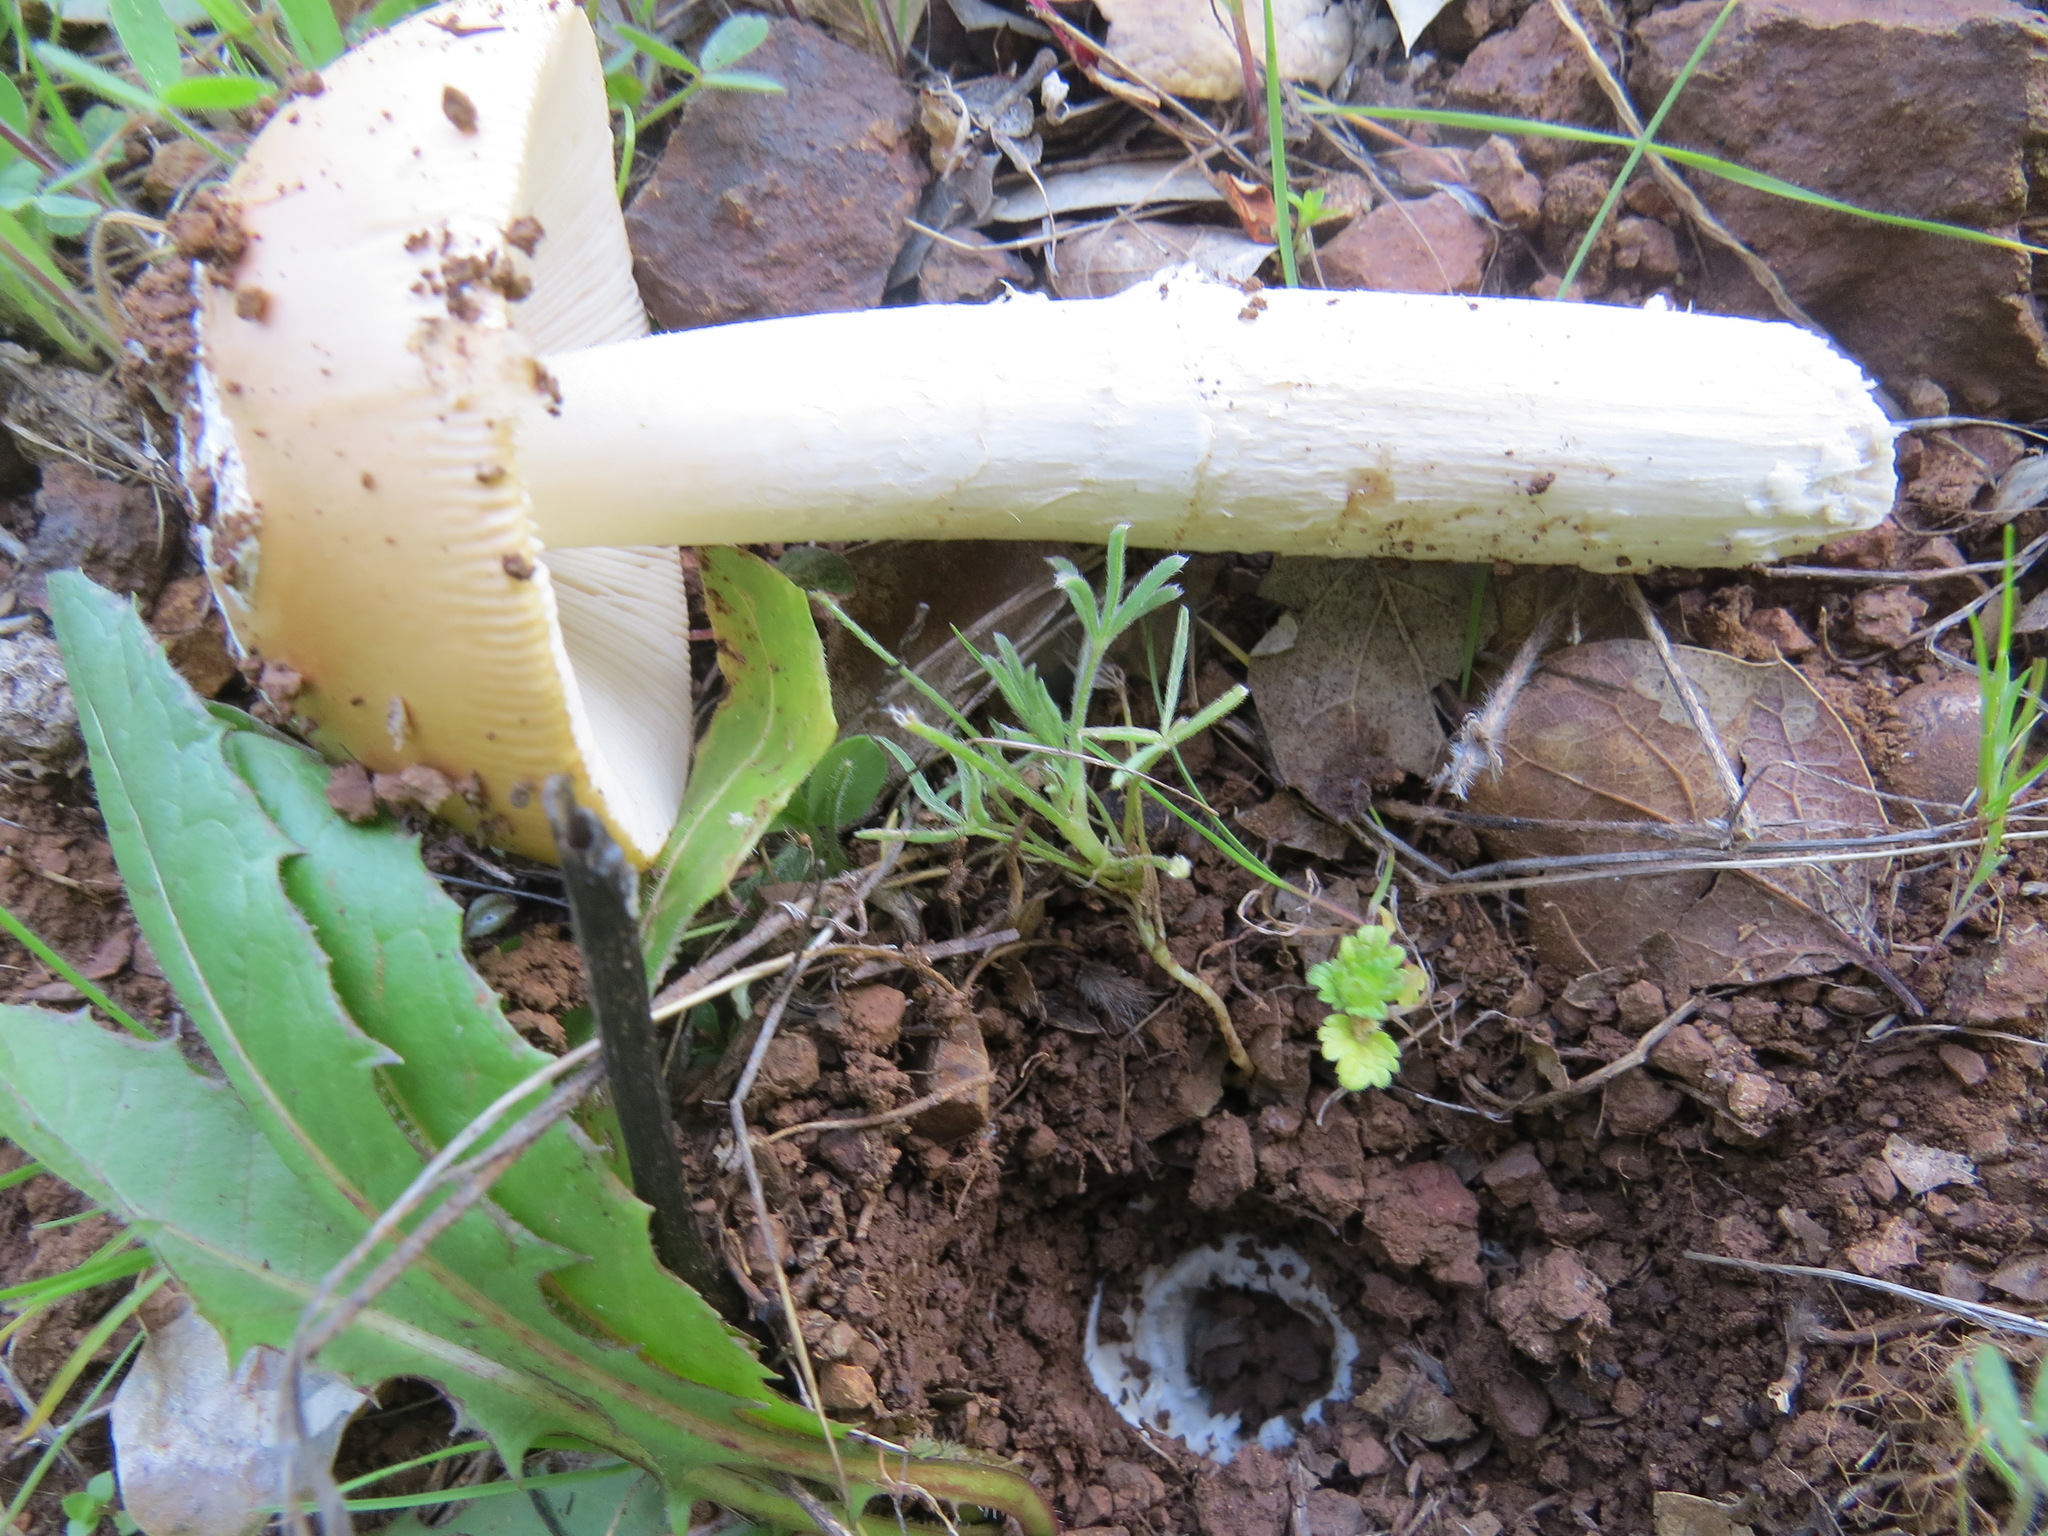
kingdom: Fungi
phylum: Basidiomycota
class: Agaricomycetes
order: Agaricales
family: Amanitaceae
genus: Amanita
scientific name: Amanita velosa
